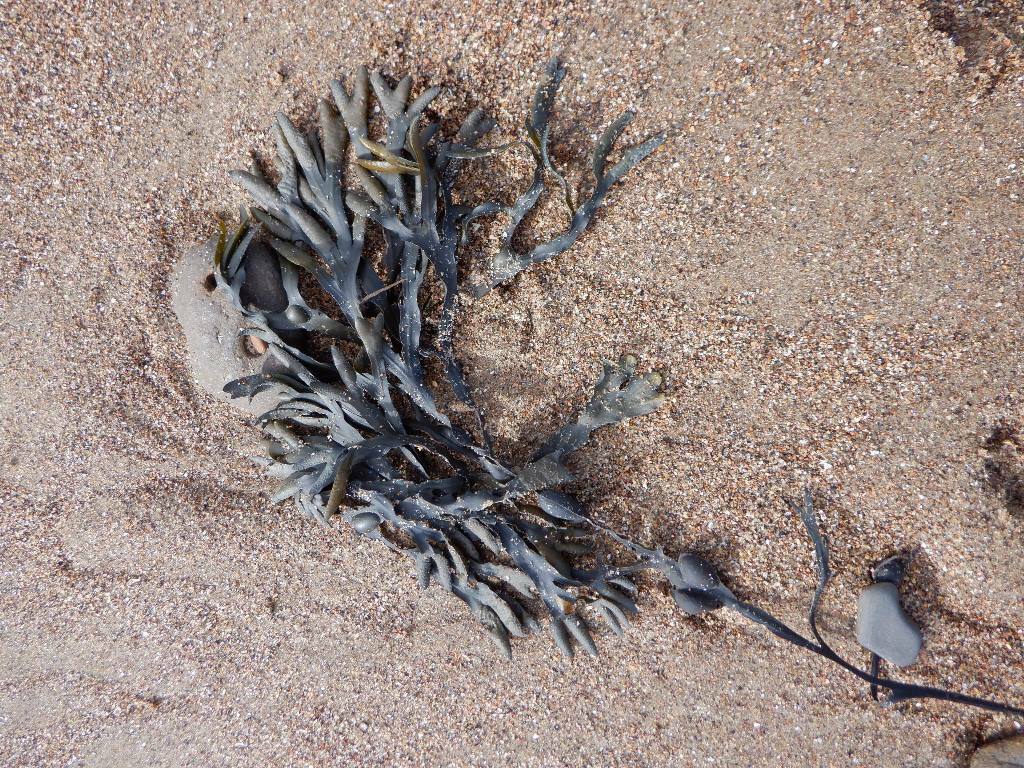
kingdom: Chromista
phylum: Ochrophyta
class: Phaeophyceae
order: Fucales
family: Fucaceae
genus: Fucus
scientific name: Fucus vesiculosus
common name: Bladder wrack
